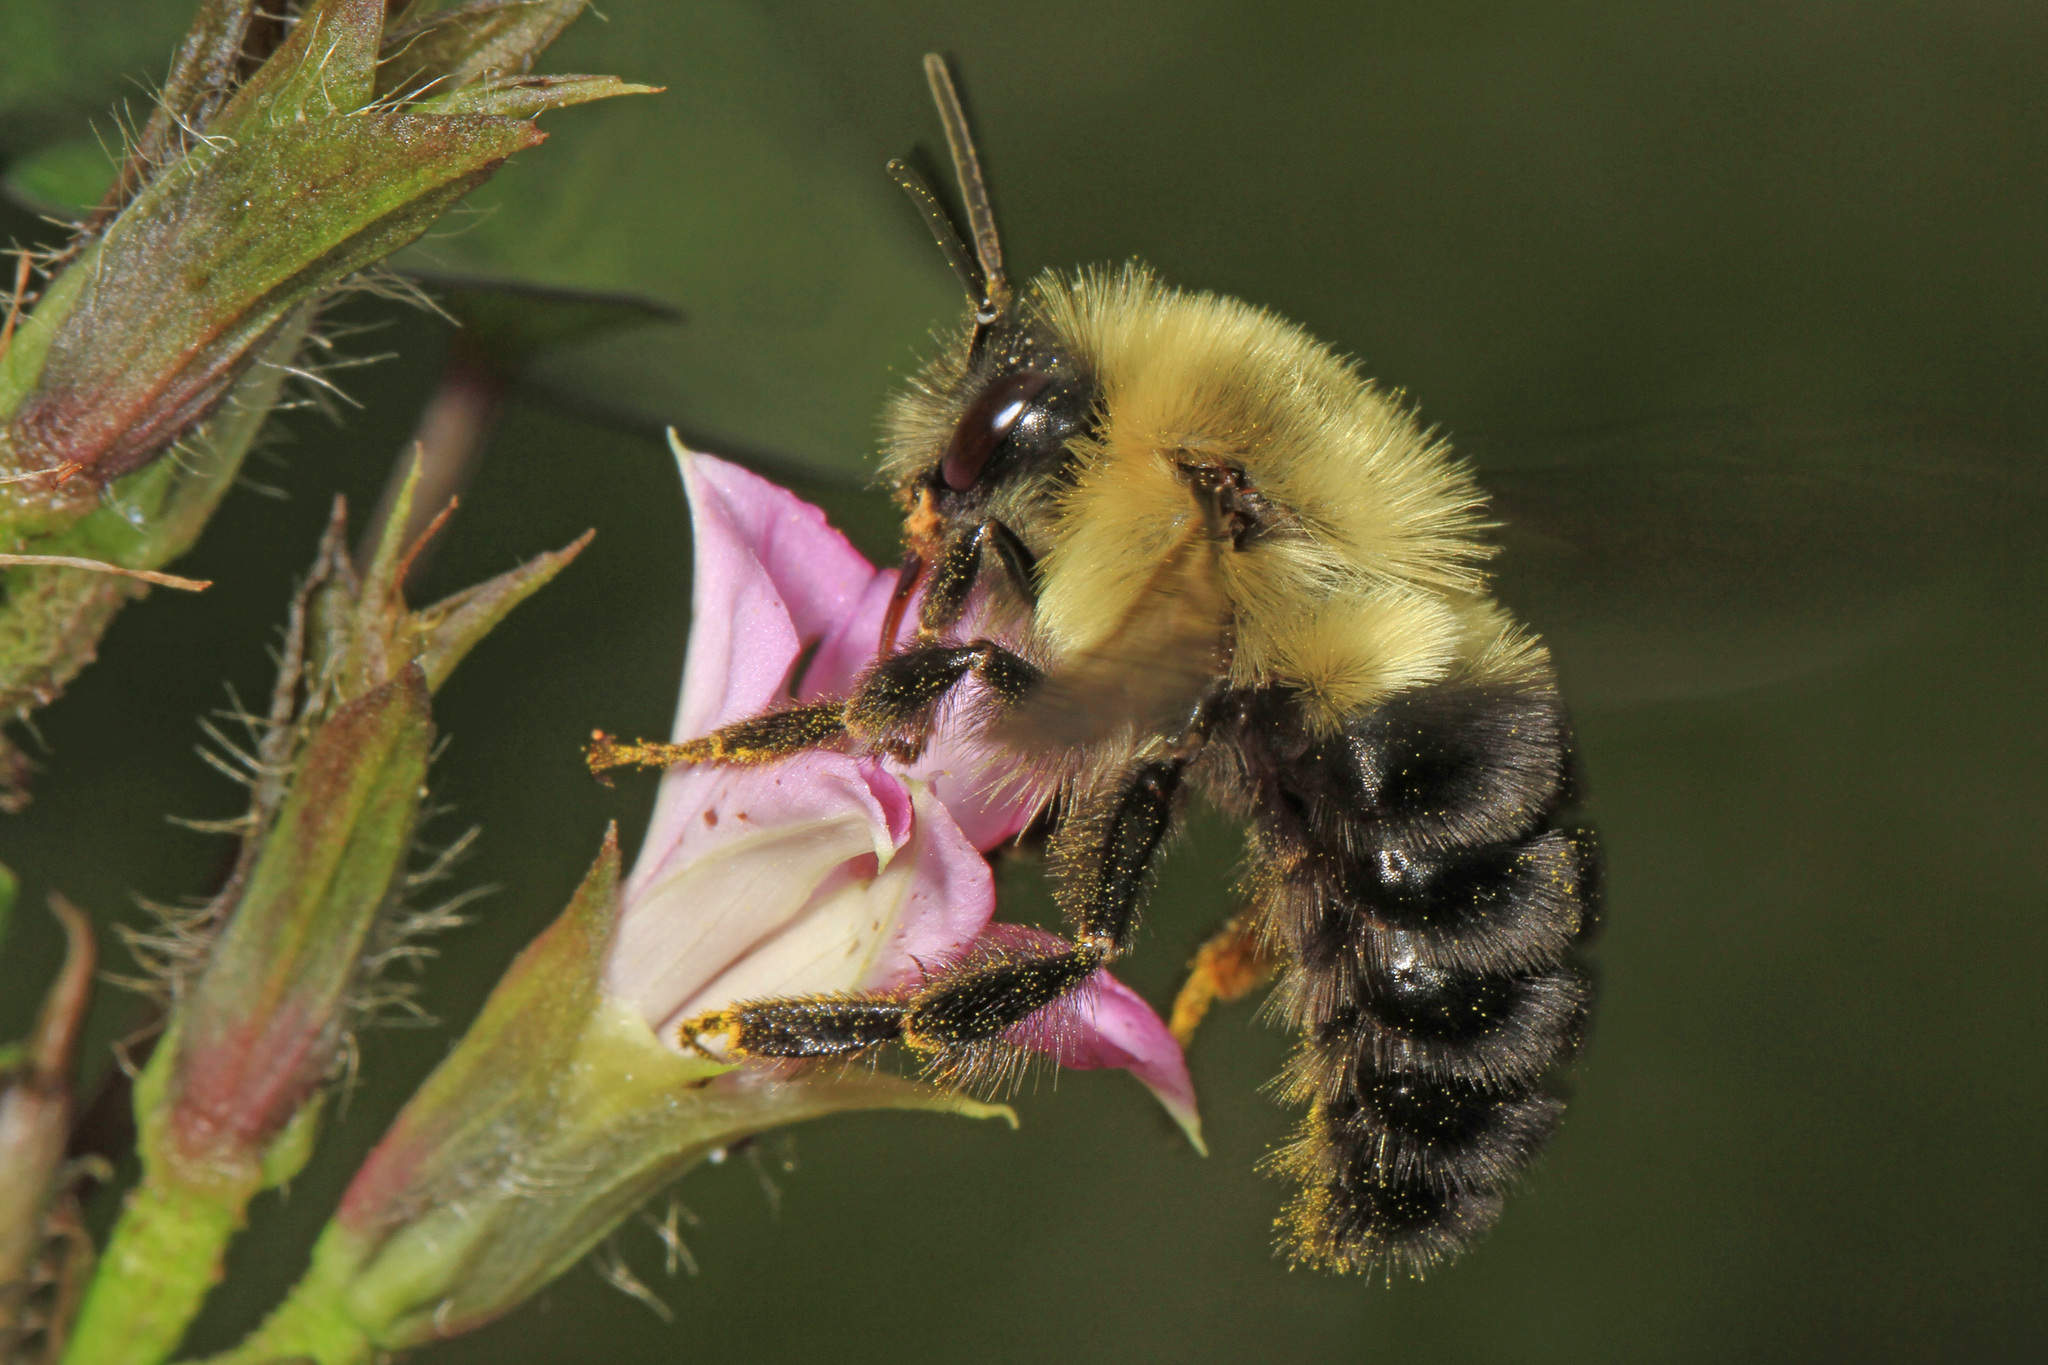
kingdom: Animalia
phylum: Arthropoda
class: Insecta
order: Hymenoptera
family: Apidae
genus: Bombus
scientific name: Bombus impatiens
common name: Common eastern bumble bee
